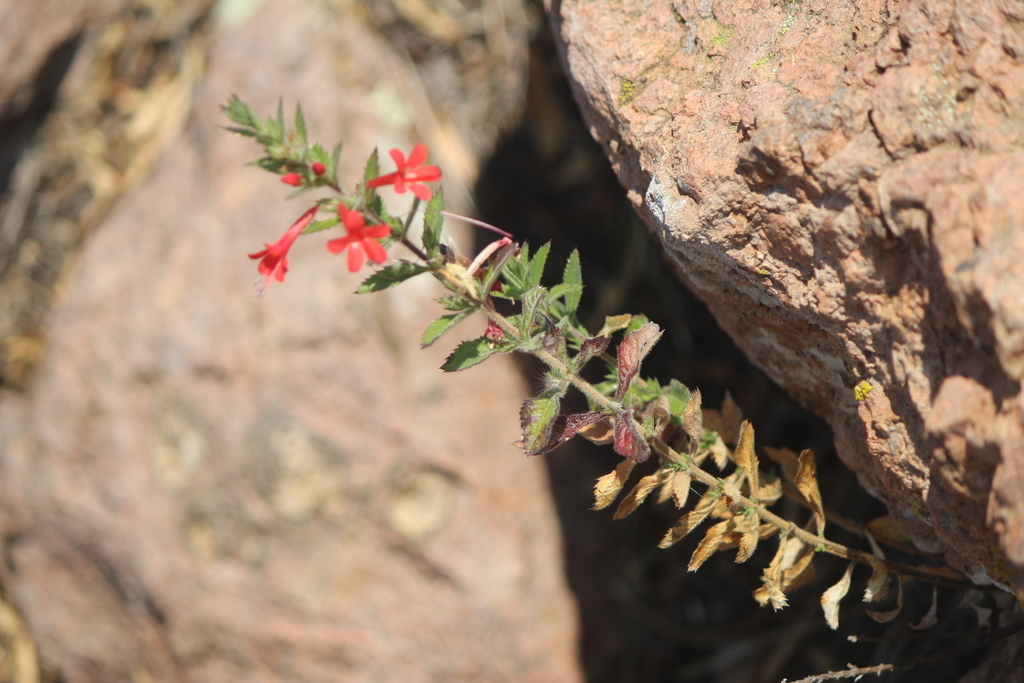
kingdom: Plantae
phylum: Tracheophyta
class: Magnoliopsida
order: Ericales
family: Polemoniaceae
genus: Loeselia
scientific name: Loeselia mexicana
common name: Mexican false calico
